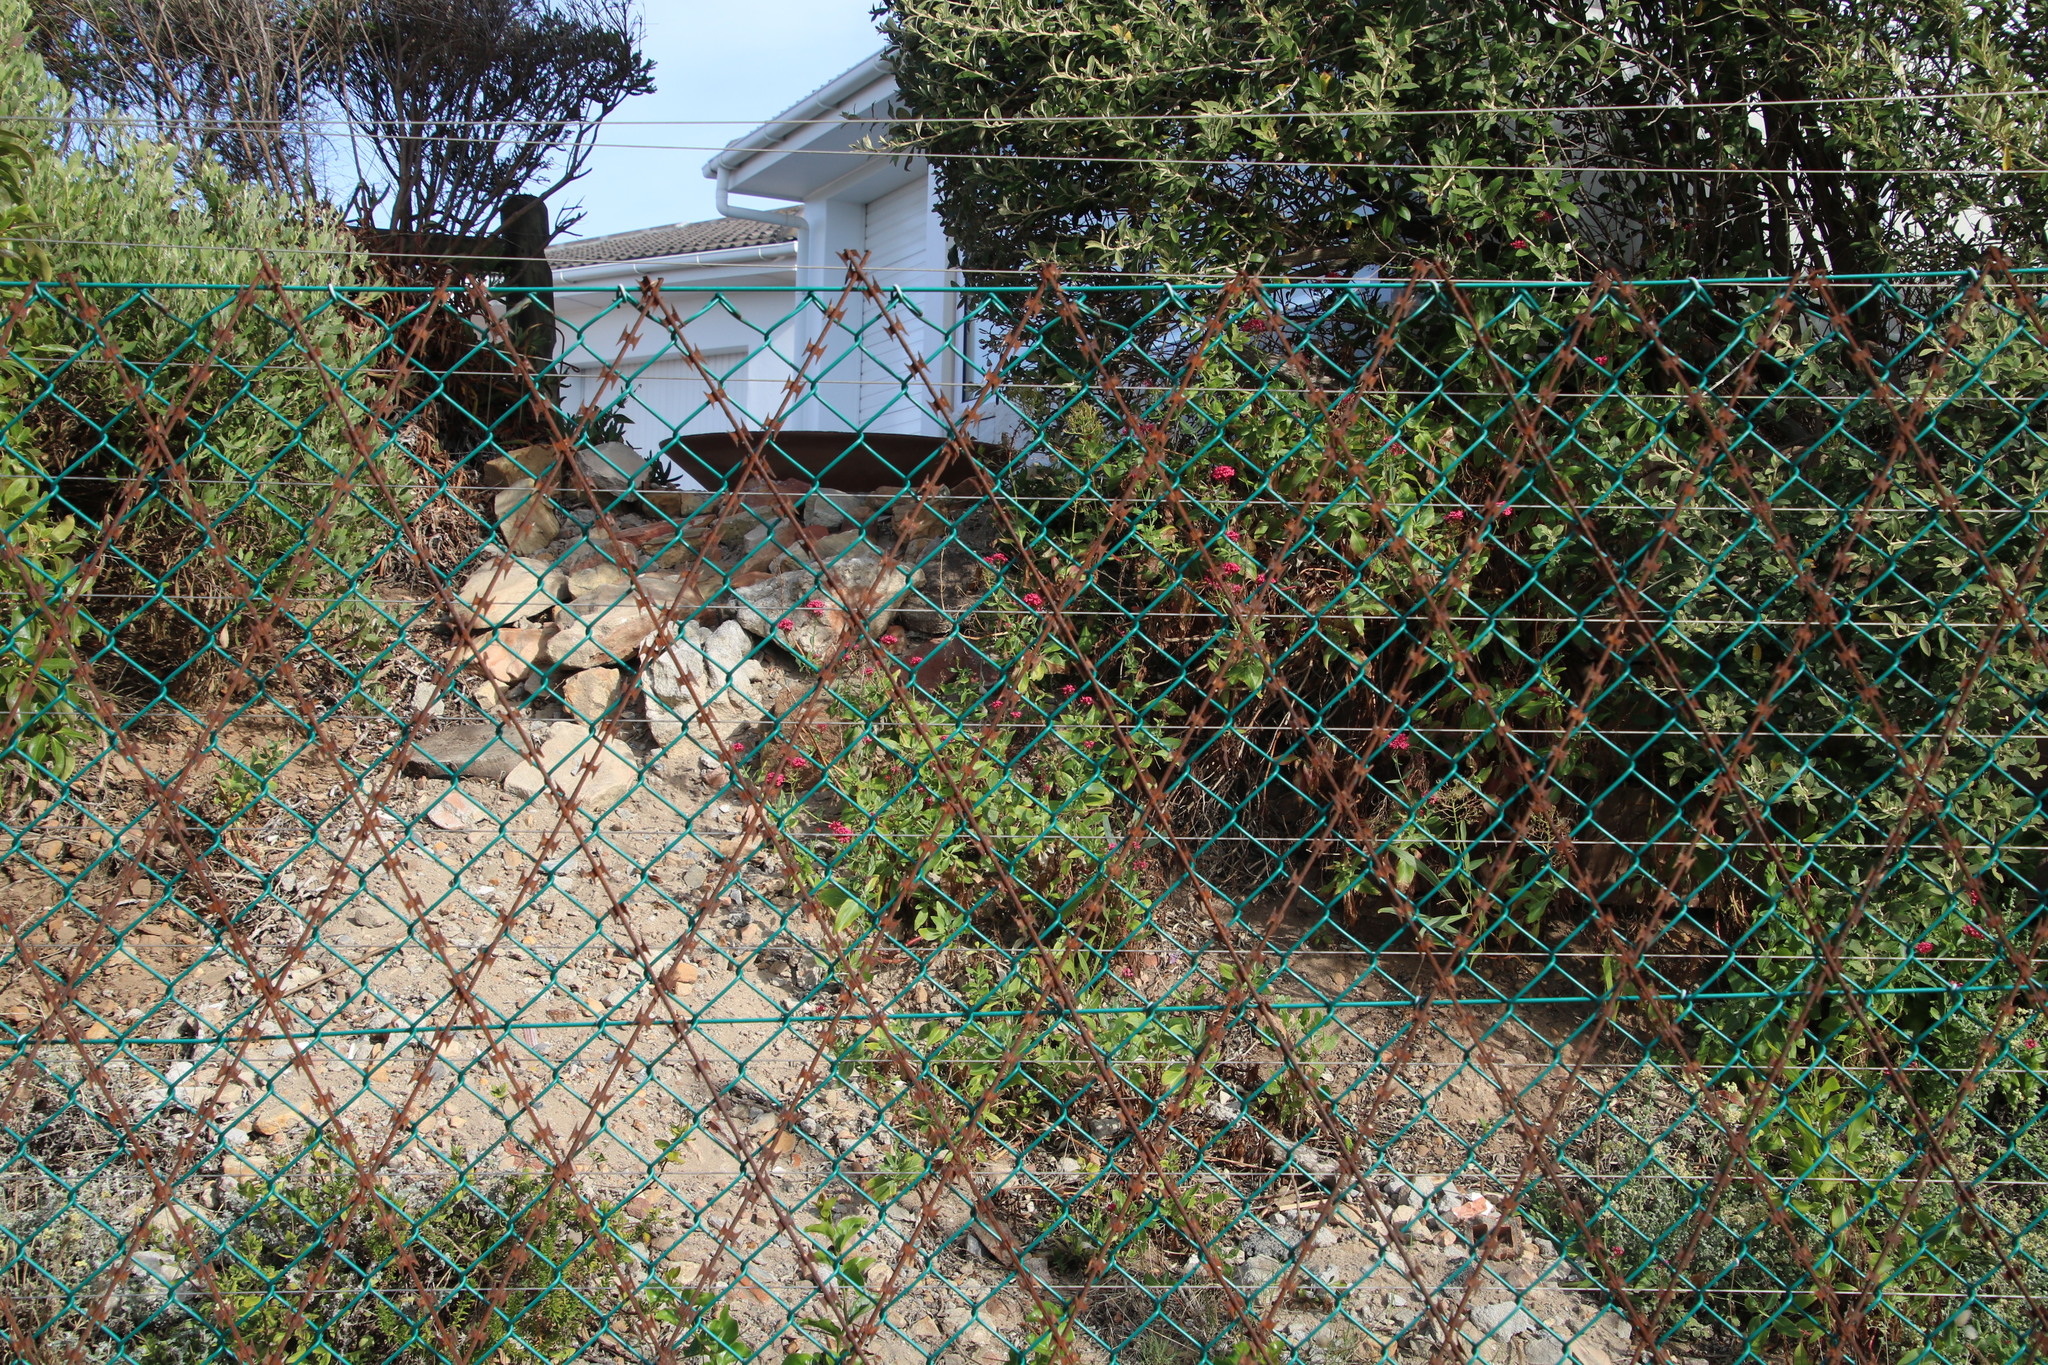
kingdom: Plantae
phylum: Tracheophyta
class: Magnoliopsida
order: Dipsacales
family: Caprifoliaceae
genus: Centranthus
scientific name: Centranthus ruber
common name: Red valerian
